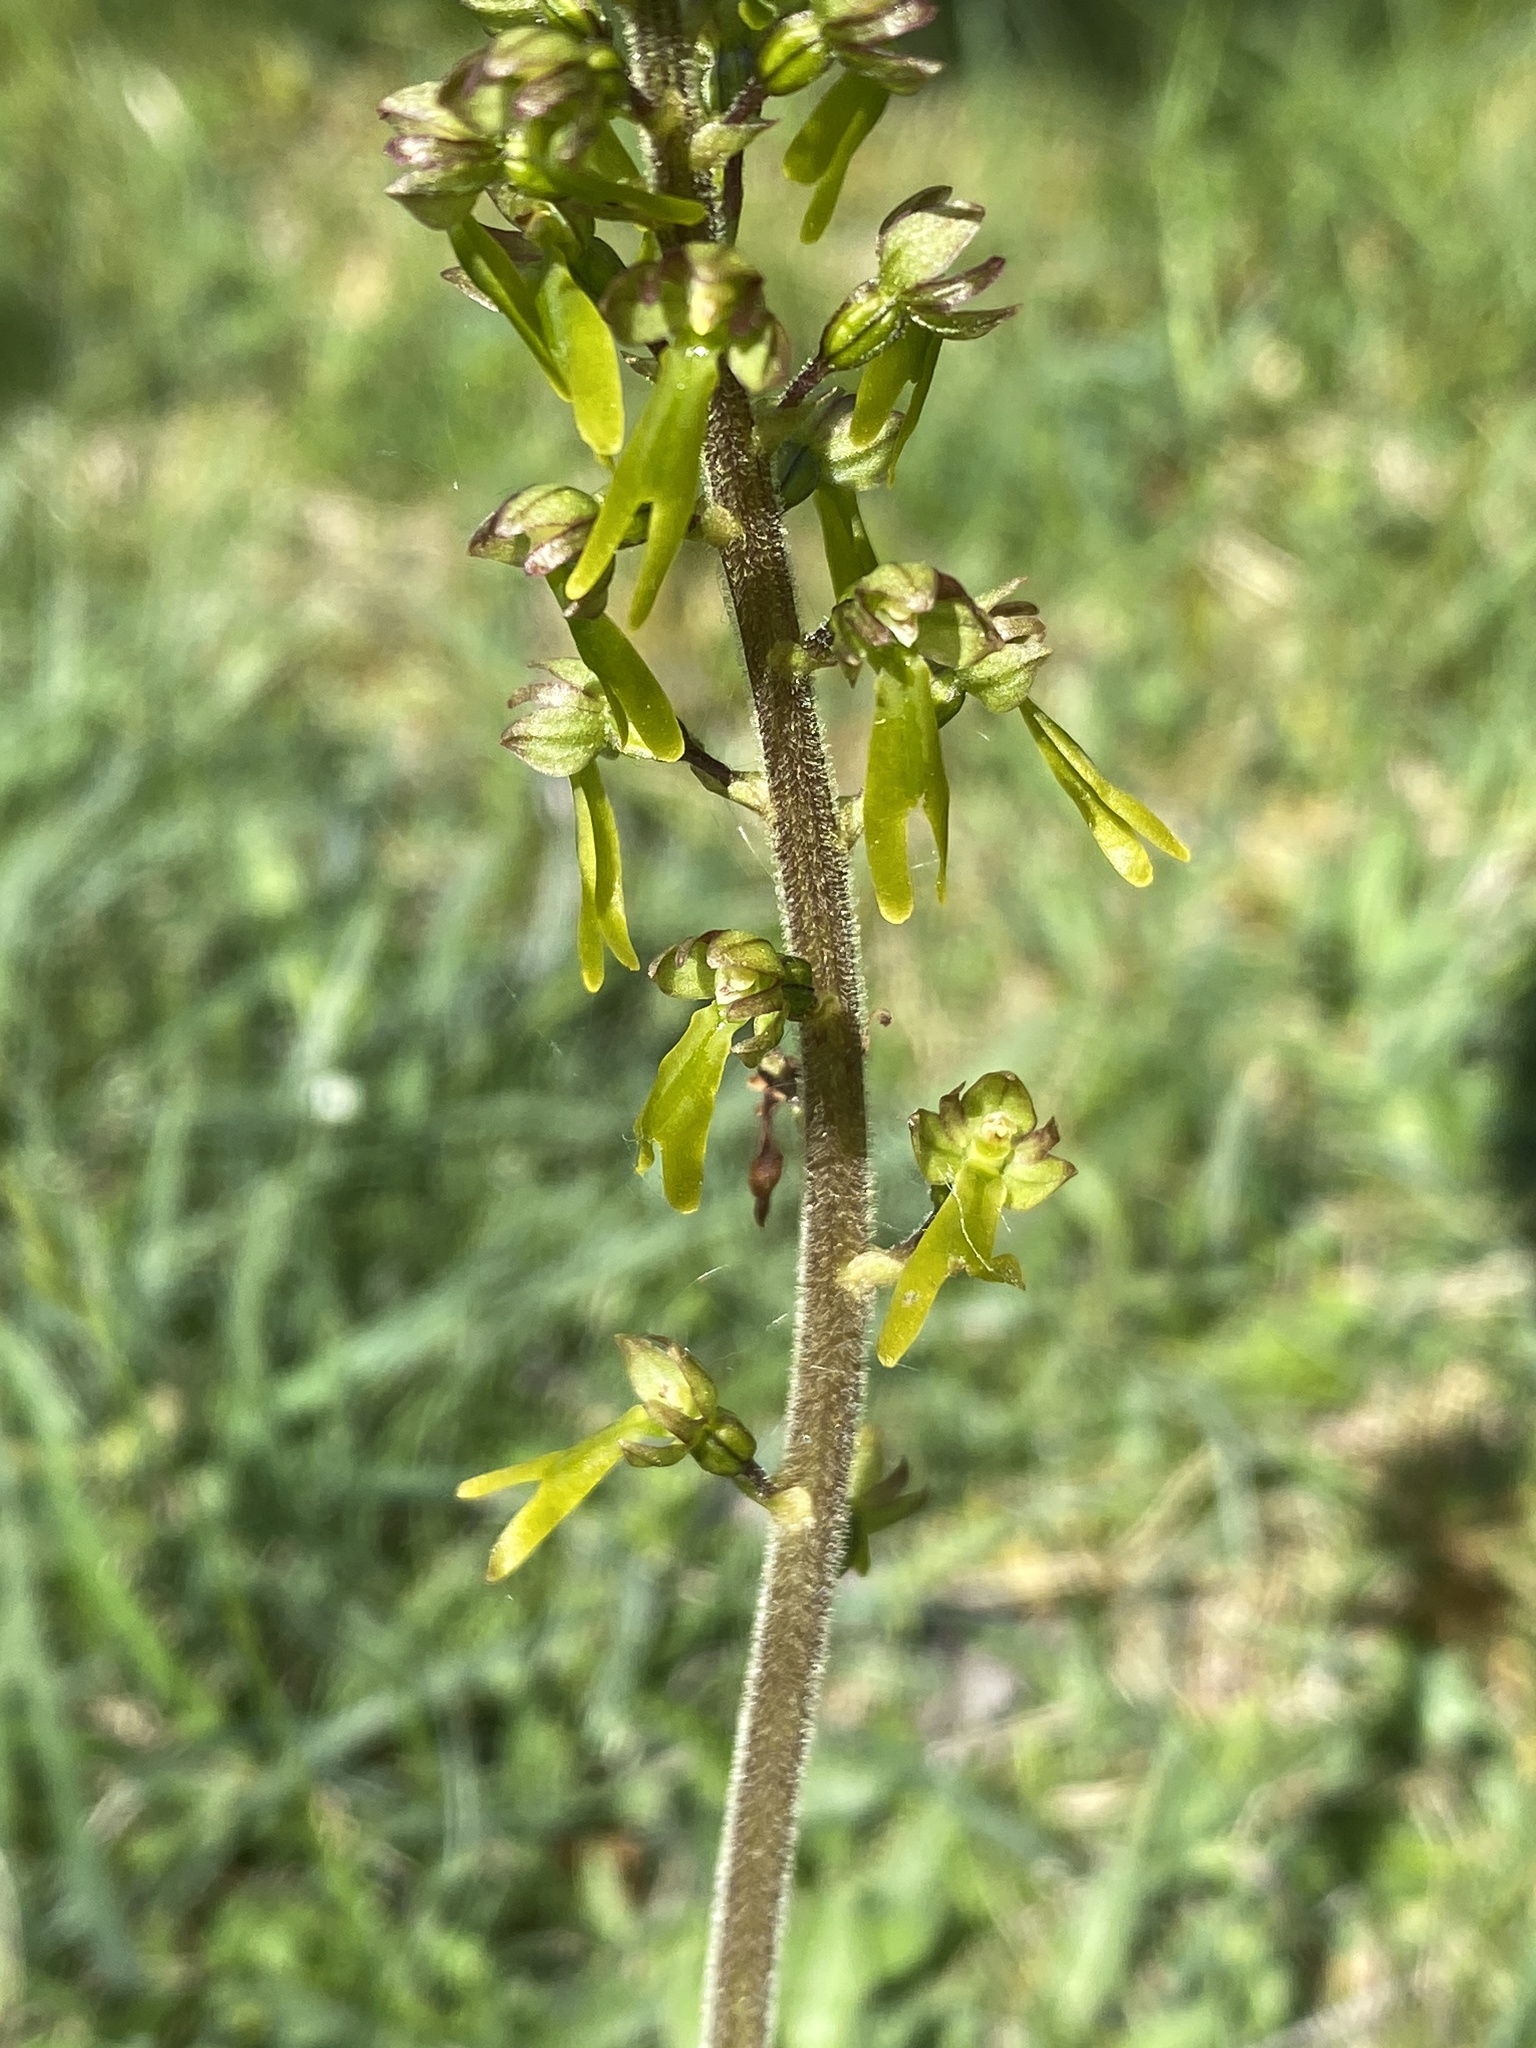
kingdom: Plantae
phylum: Tracheophyta
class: Liliopsida
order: Asparagales
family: Orchidaceae
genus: Neottia
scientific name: Neottia ovata
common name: Common twayblade
